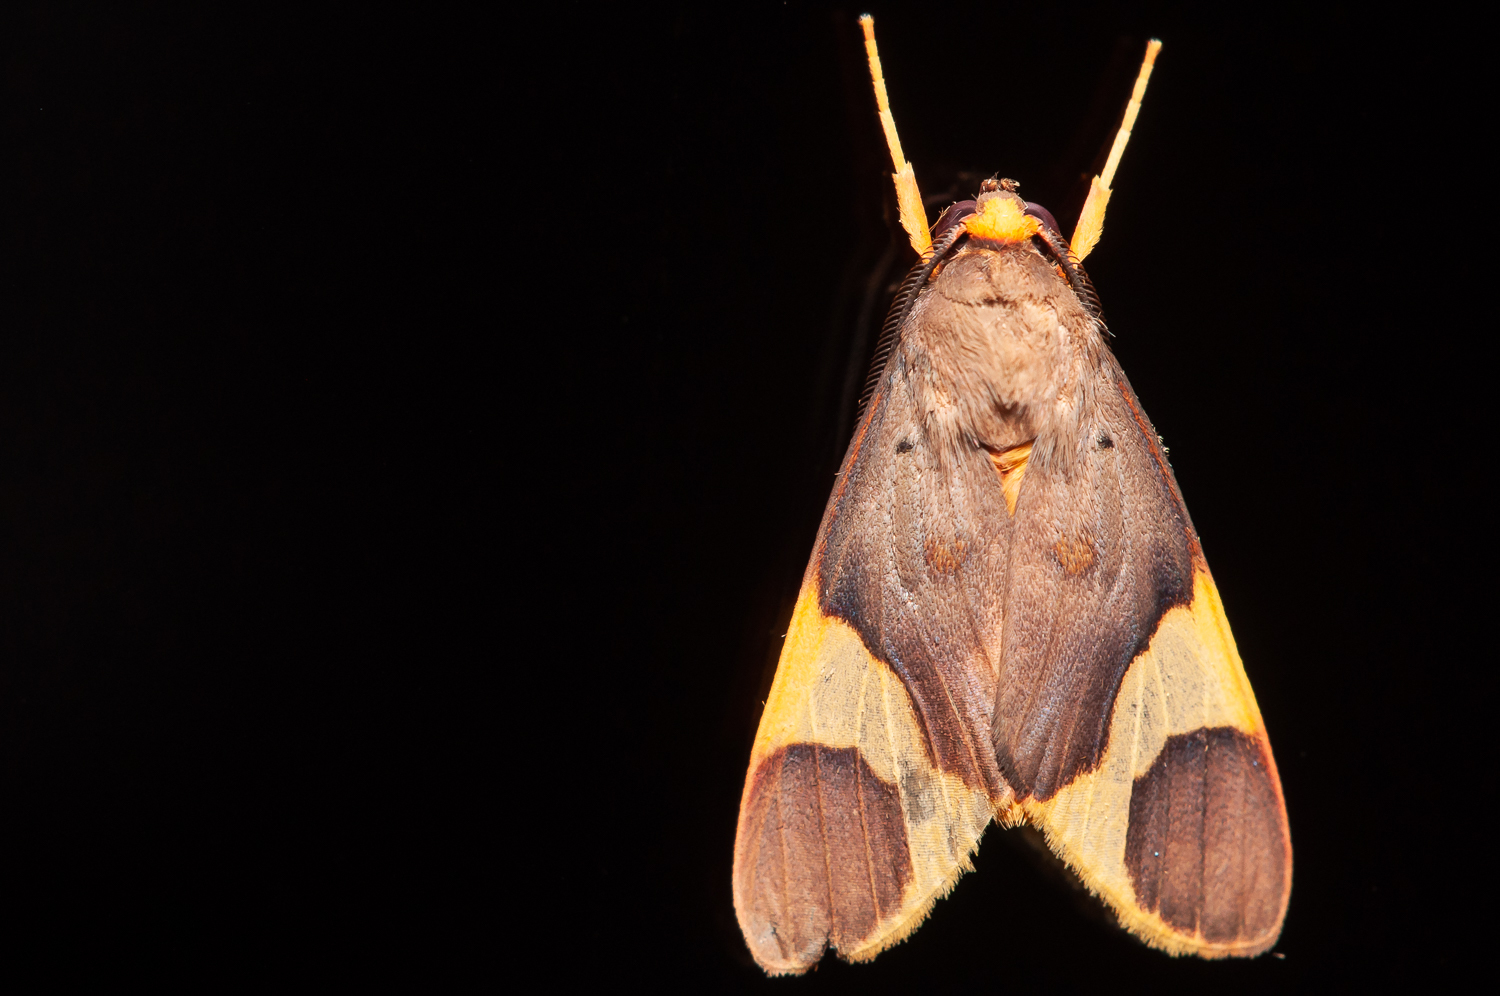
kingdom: Animalia
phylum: Arthropoda
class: Insecta
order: Lepidoptera
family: Erebidae
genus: Trichromia
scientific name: Trichromia cotes
